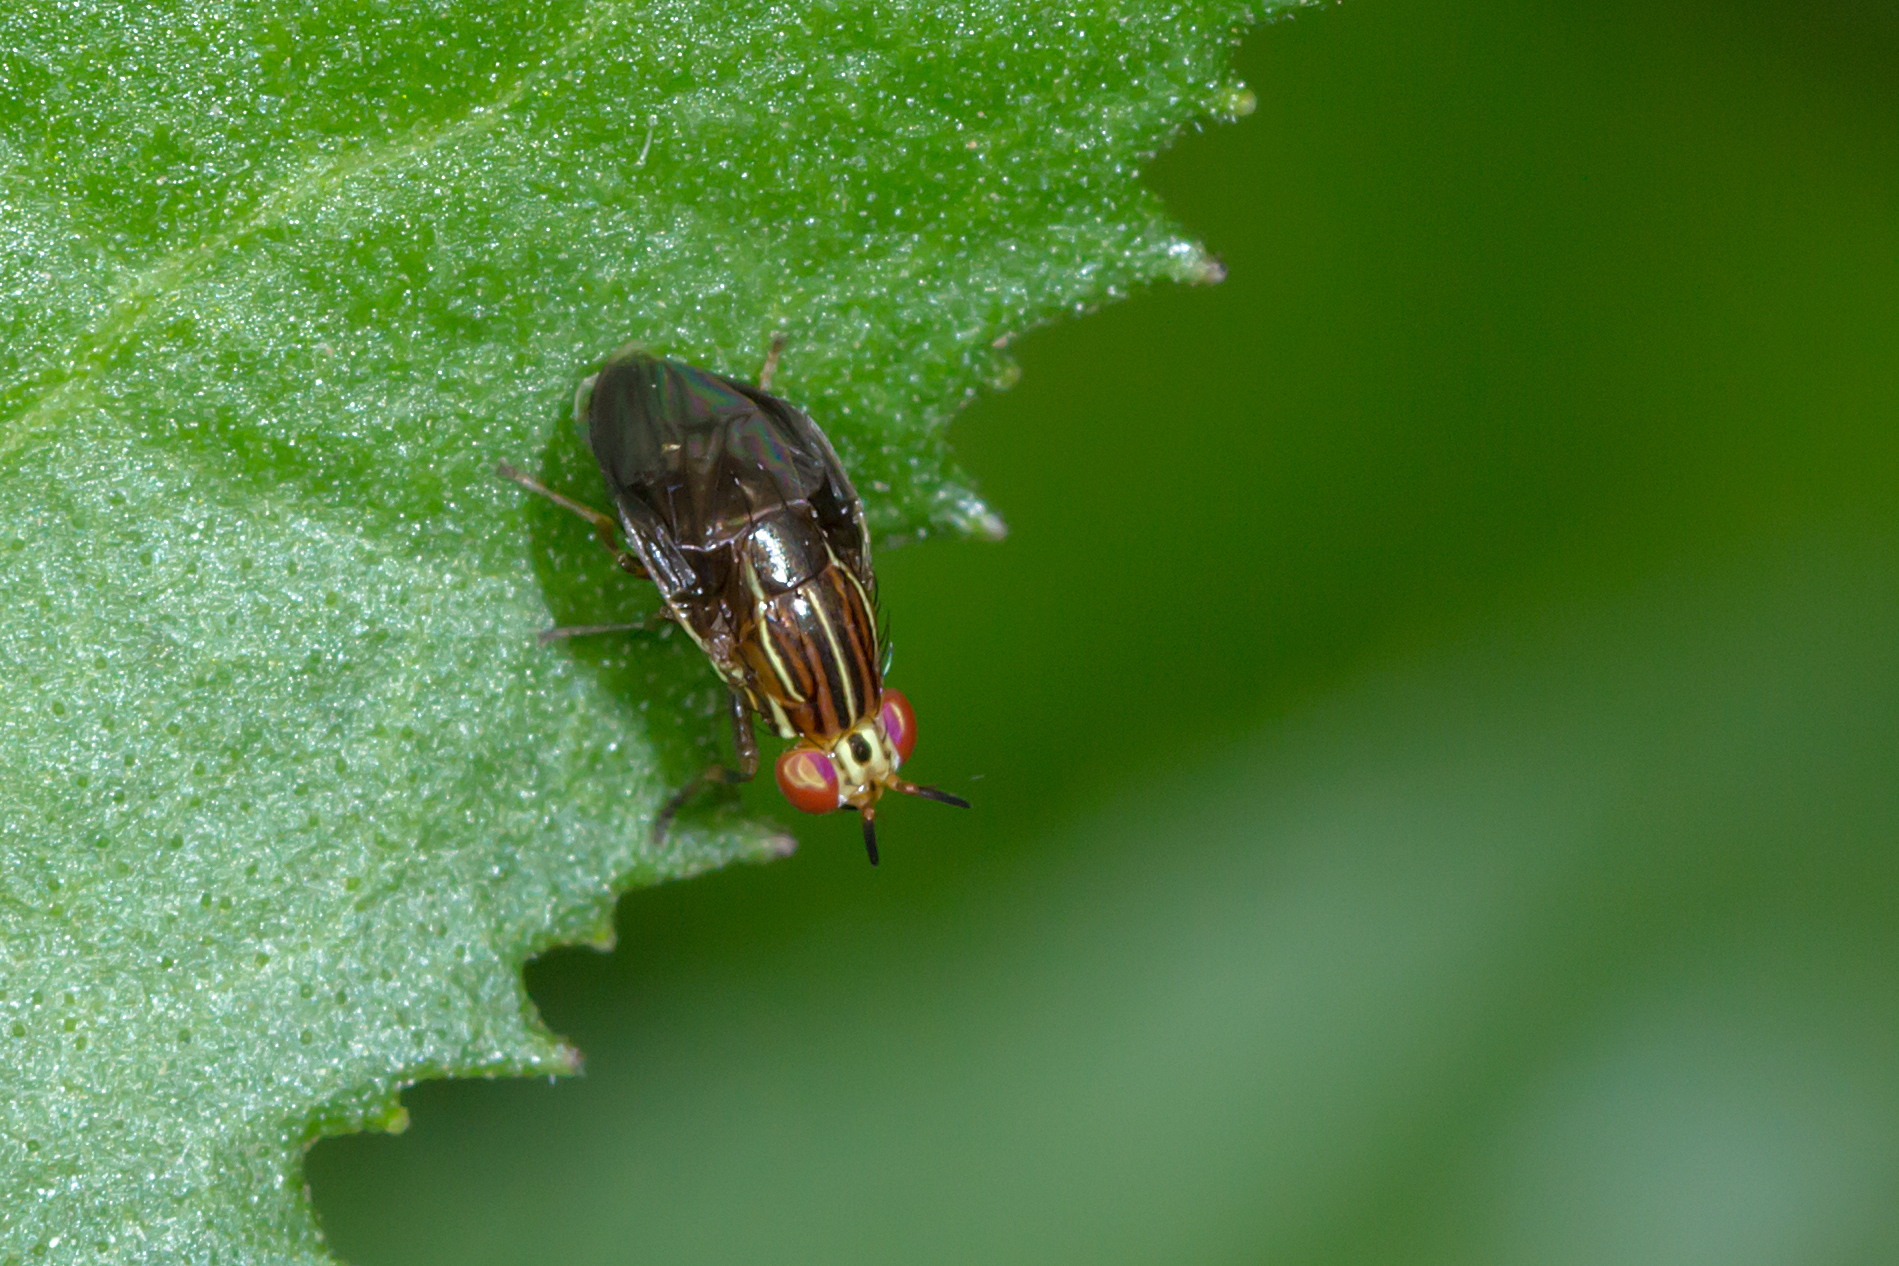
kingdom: Animalia
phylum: Arthropoda
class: Insecta
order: Diptera
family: Lauxaniidae
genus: Steganopsis
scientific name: Steganopsis melanogaster
